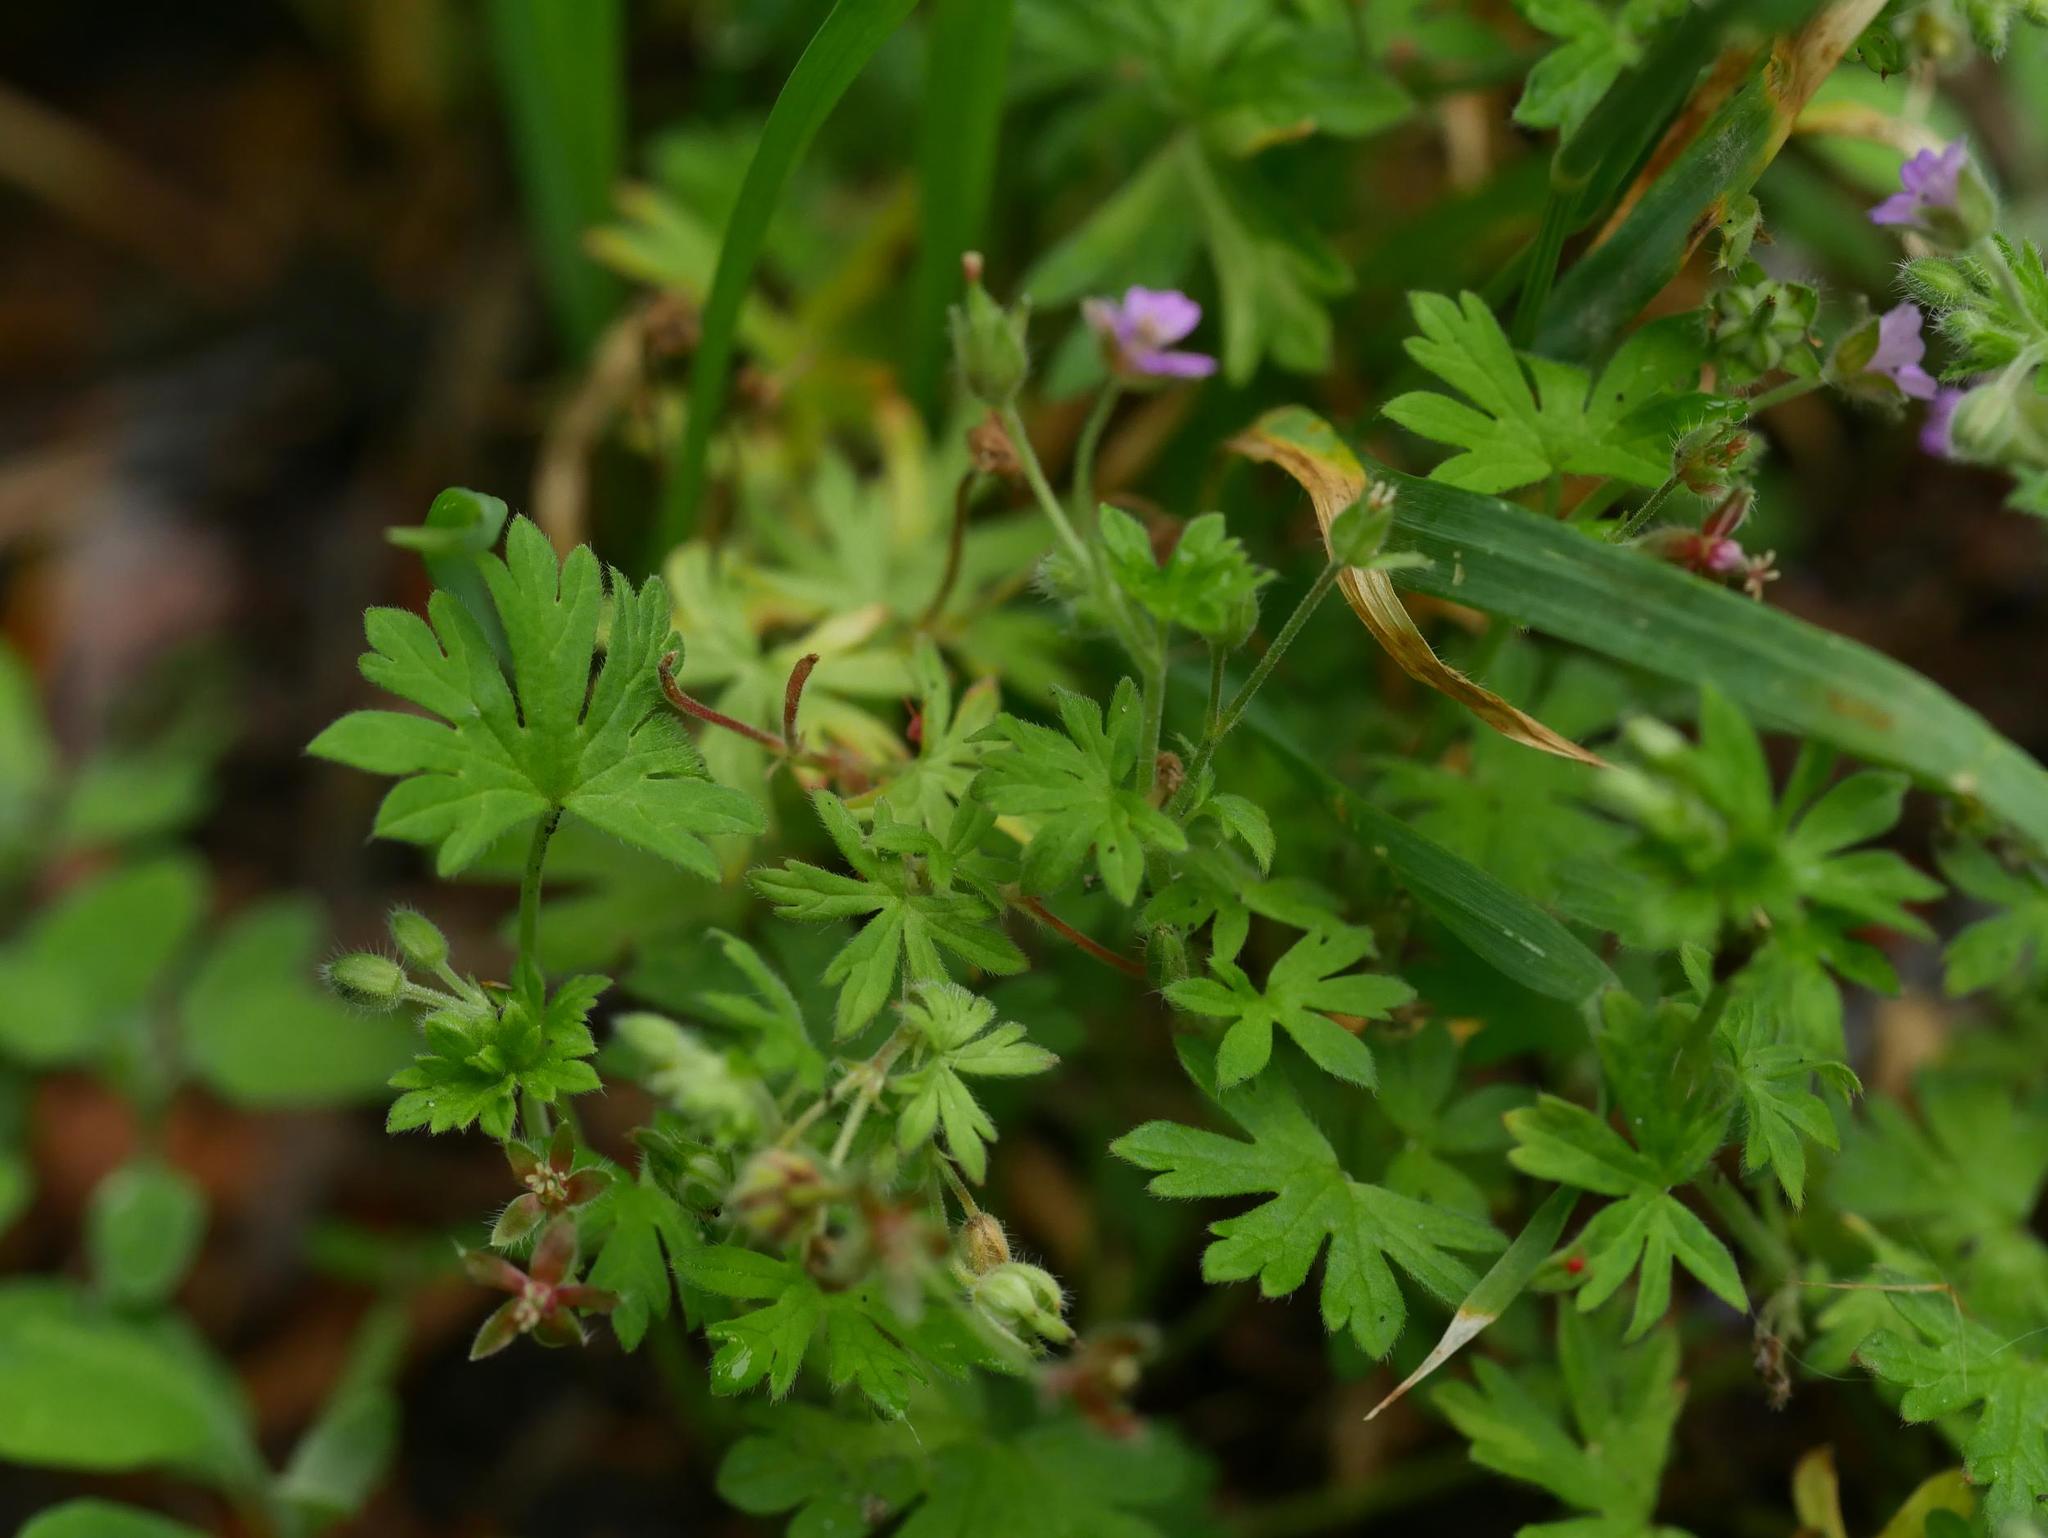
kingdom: Plantae
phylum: Tracheophyta
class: Magnoliopsida
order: Geraniales
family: Geraniaceae
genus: Geranium
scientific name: Geranium pusillum
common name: Small geranium
